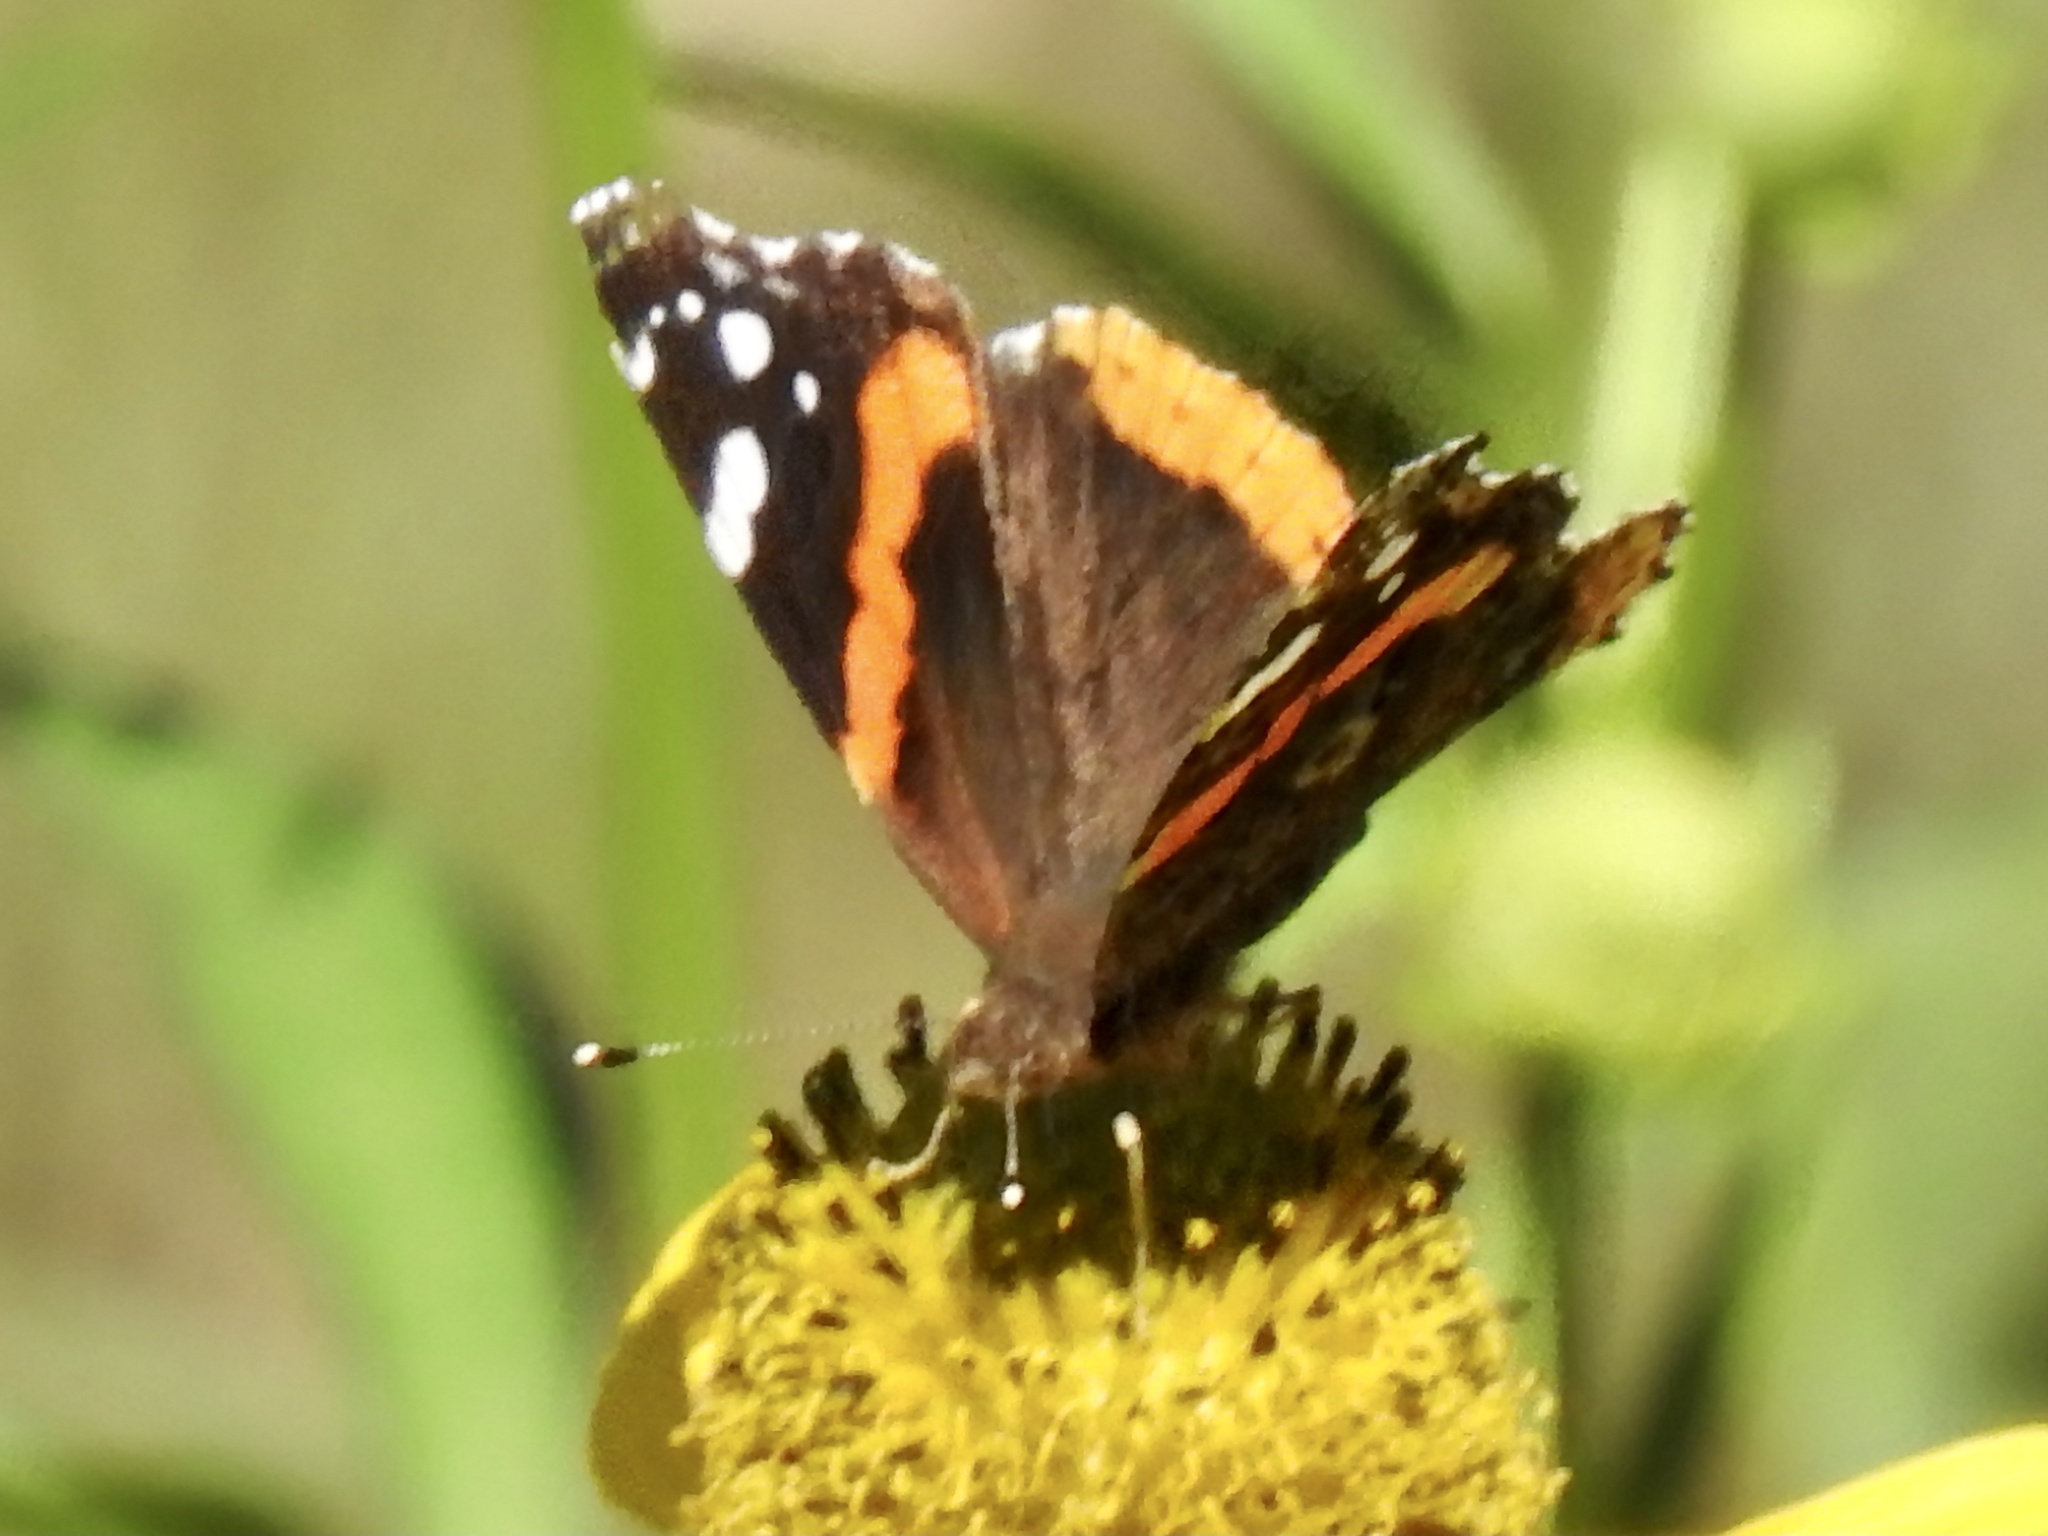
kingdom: Animalia
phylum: Arthropoda
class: Insecta
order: Lepidoptera
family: Nymphalidae
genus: Vanessa
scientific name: Vanessa atalanta
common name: Red admiral
